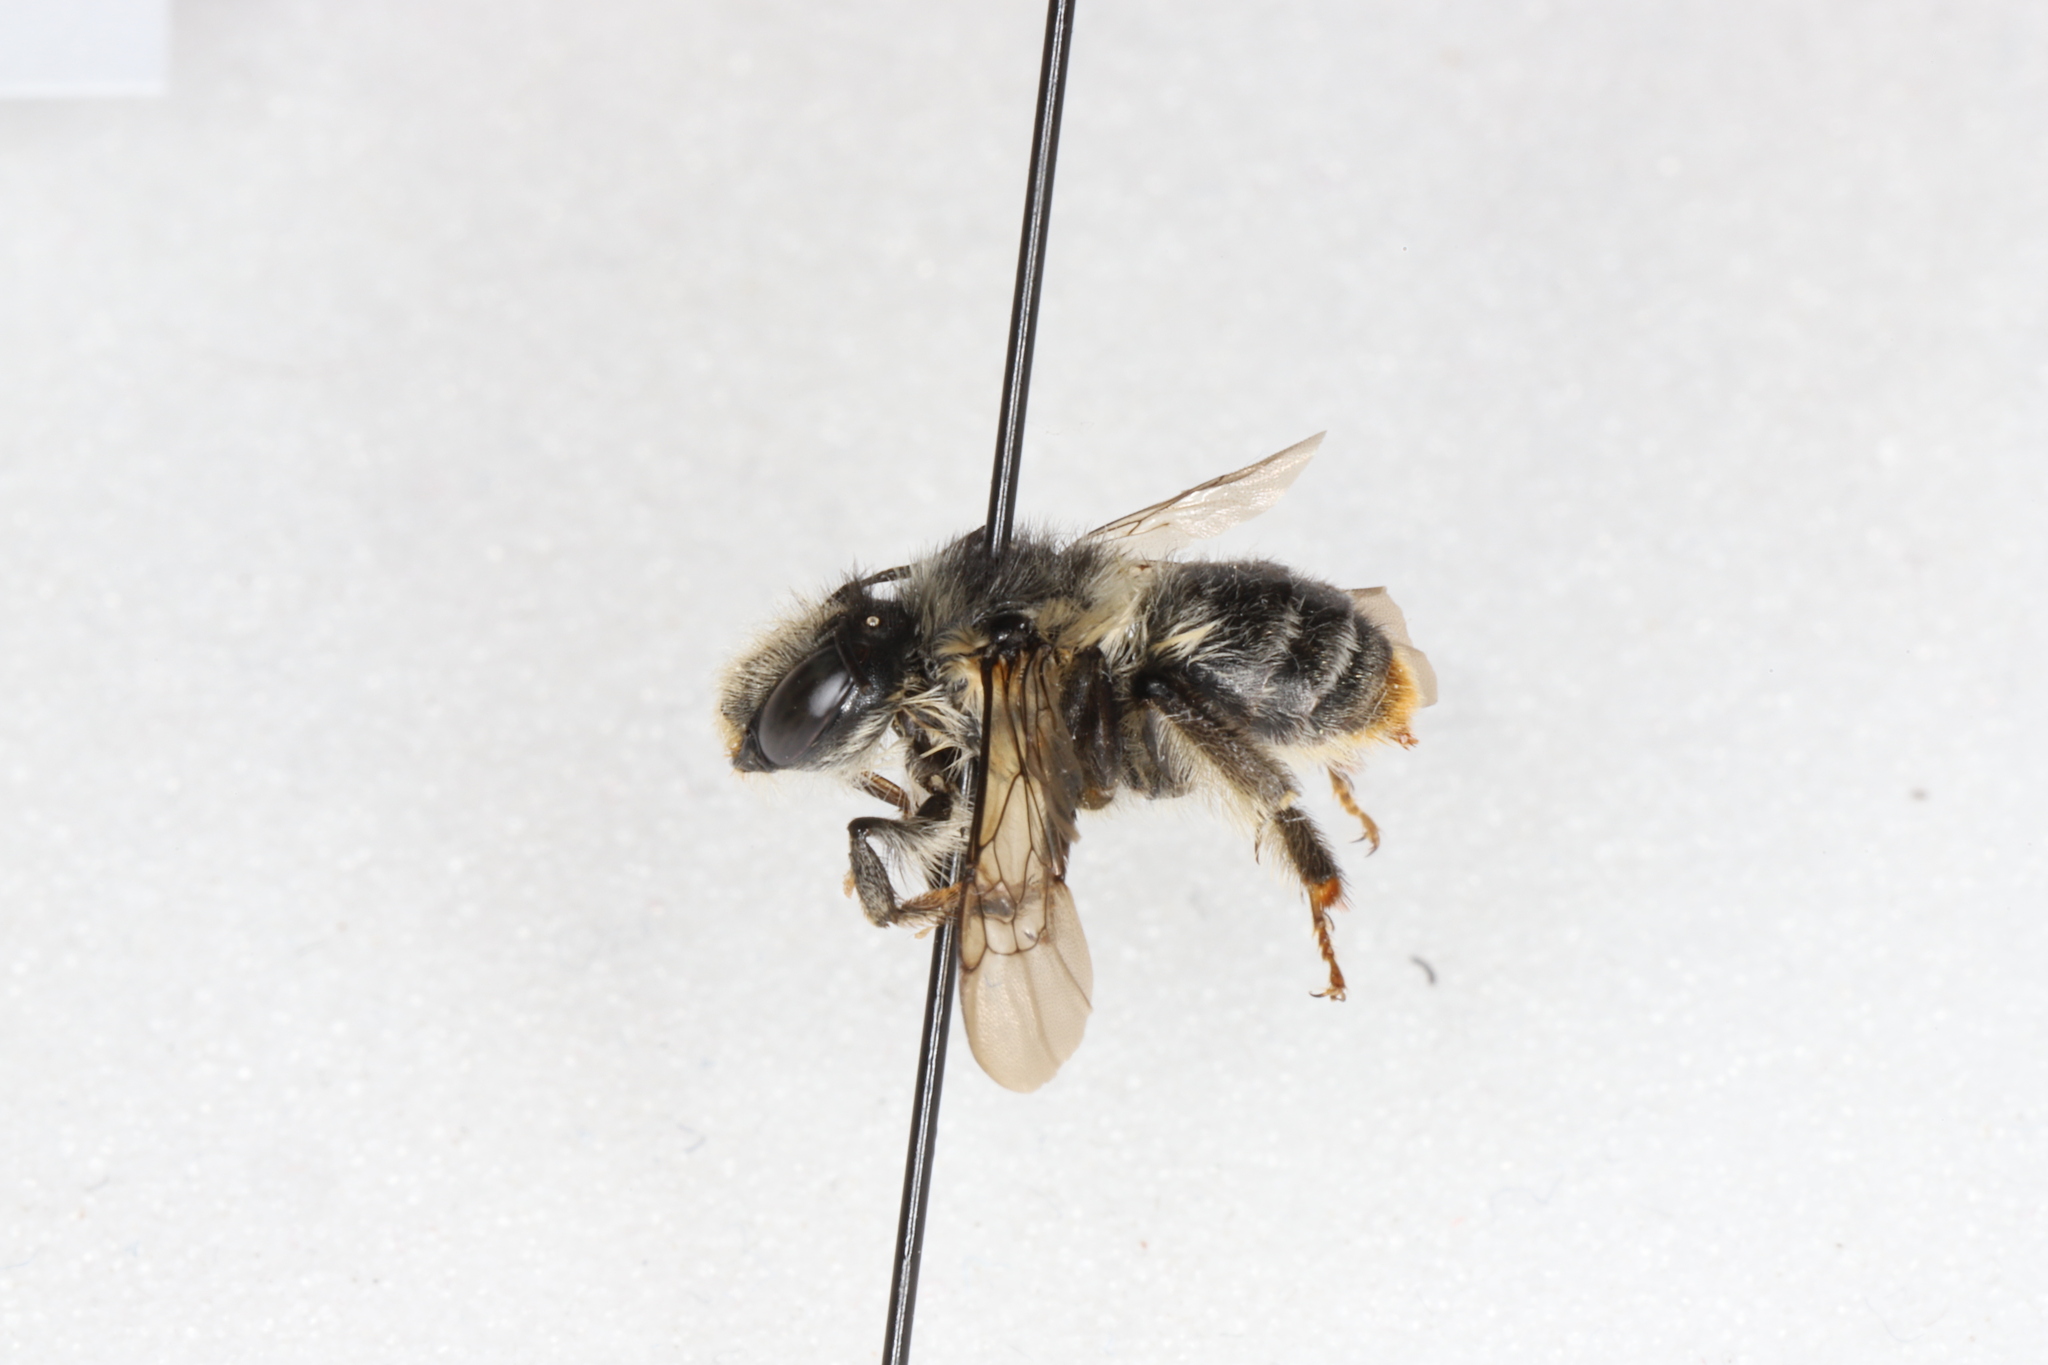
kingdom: Animalia
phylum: Arthropoda
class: Insecta
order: Hymenoptera
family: Apidae
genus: Anthophora
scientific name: Anthophora terminalis
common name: Orange-tipped wood-digger bee
